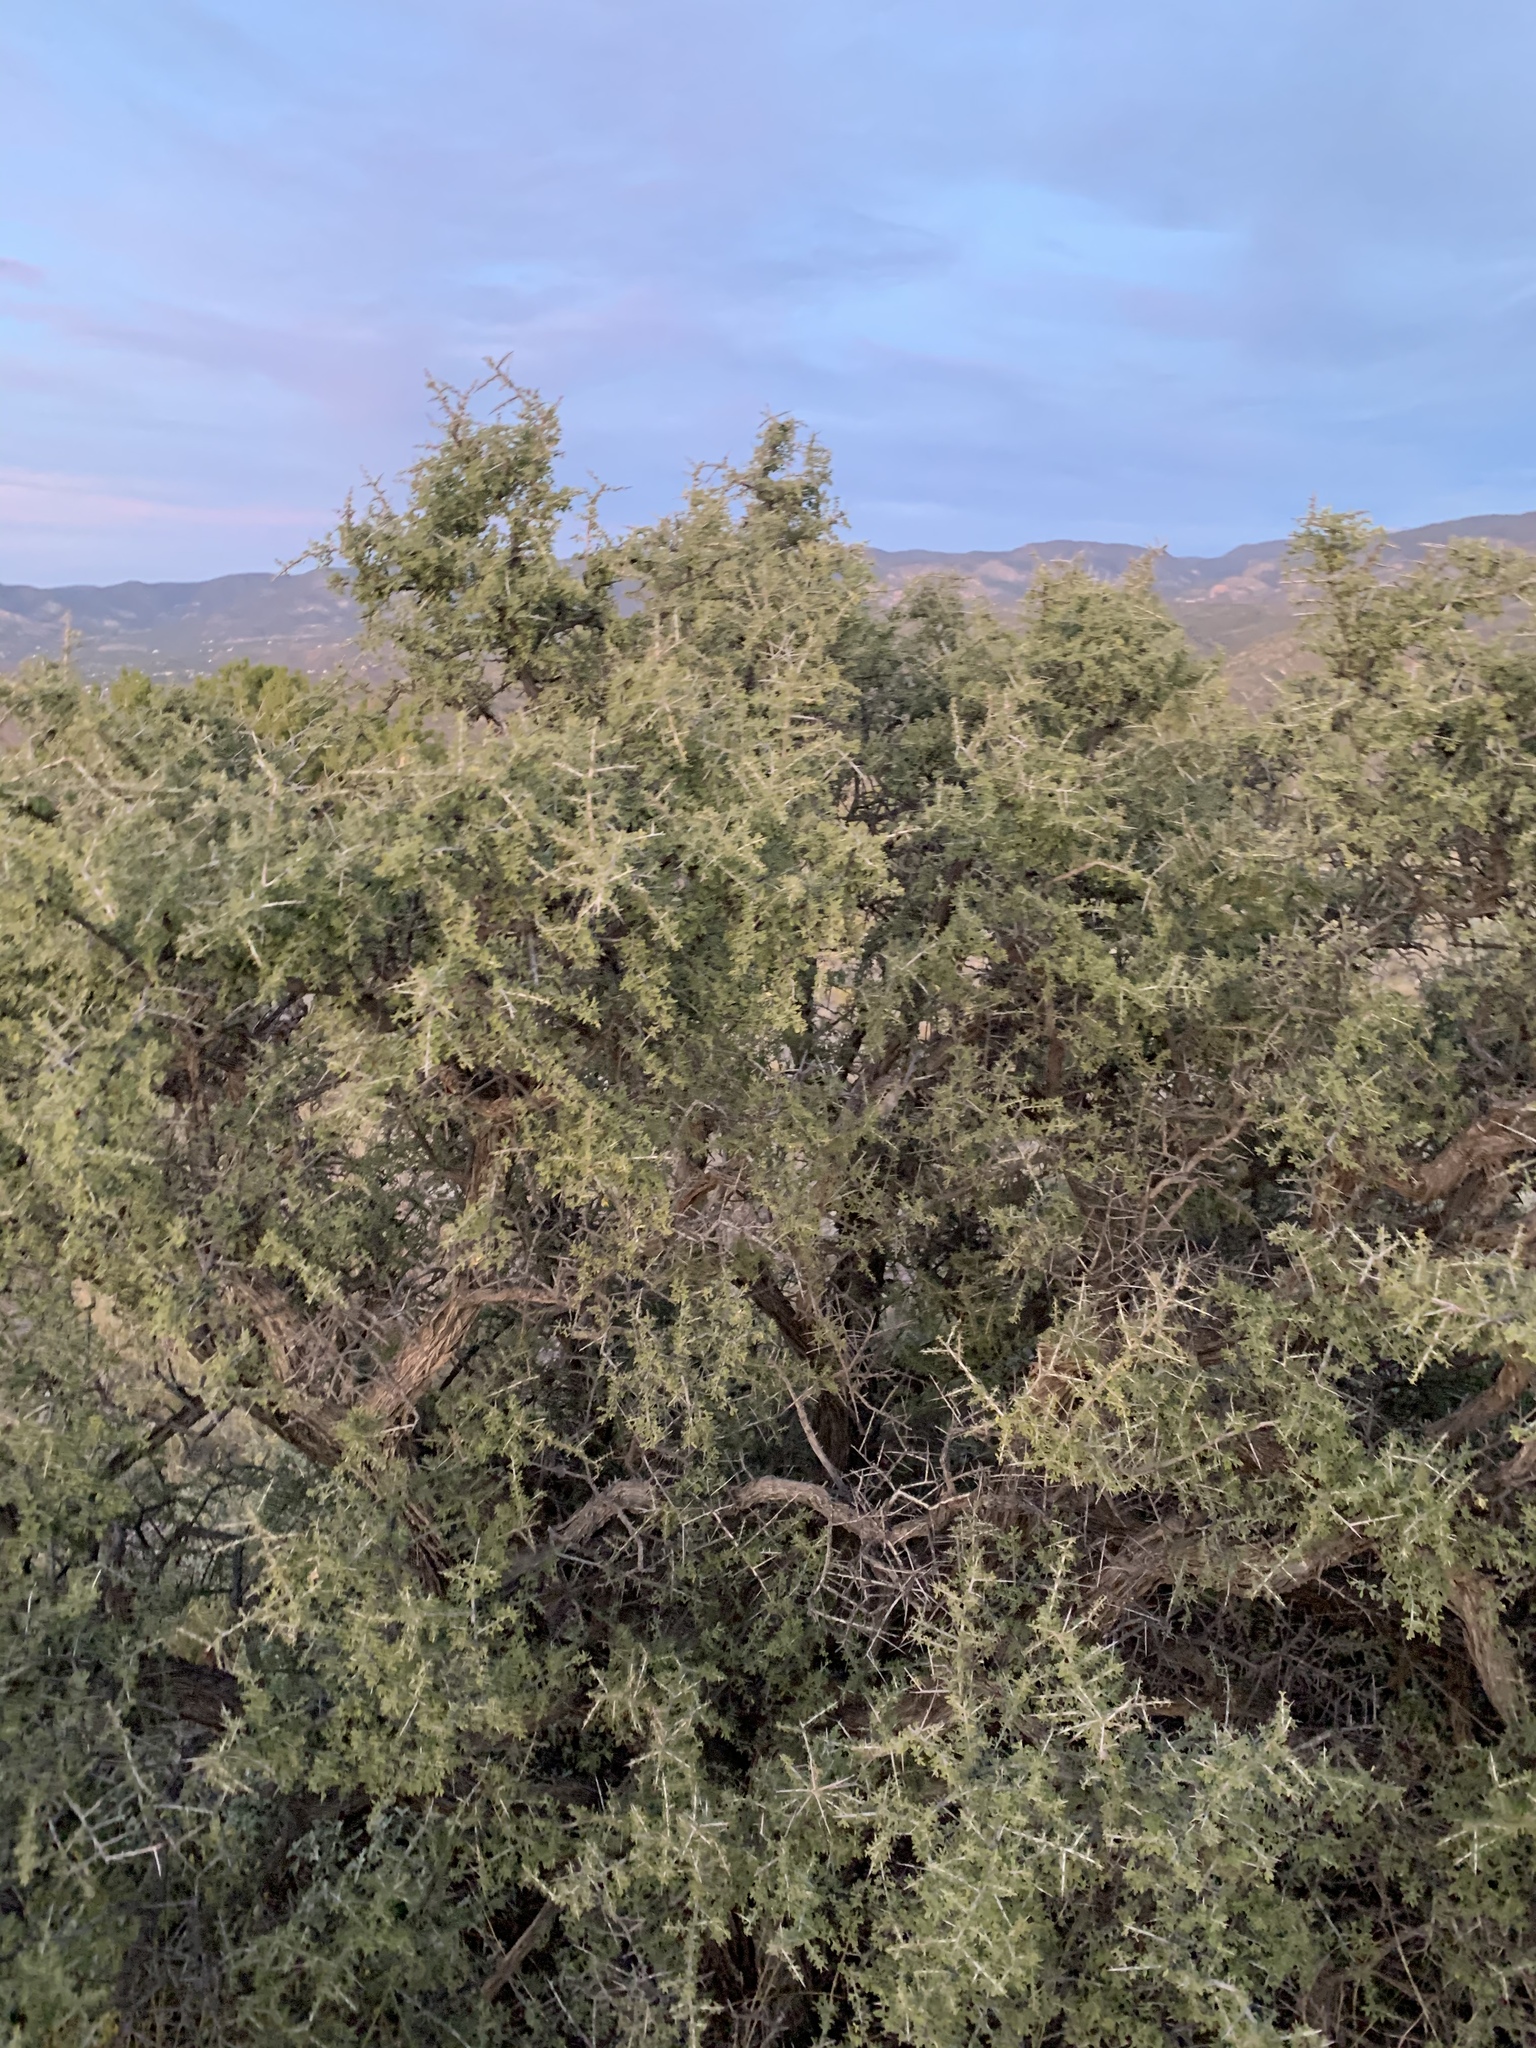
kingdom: Plantae
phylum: Tracheophyta
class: Magnoliopsida
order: Rosales
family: Rhamnaceae
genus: Condalia
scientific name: Condalia warnockii
